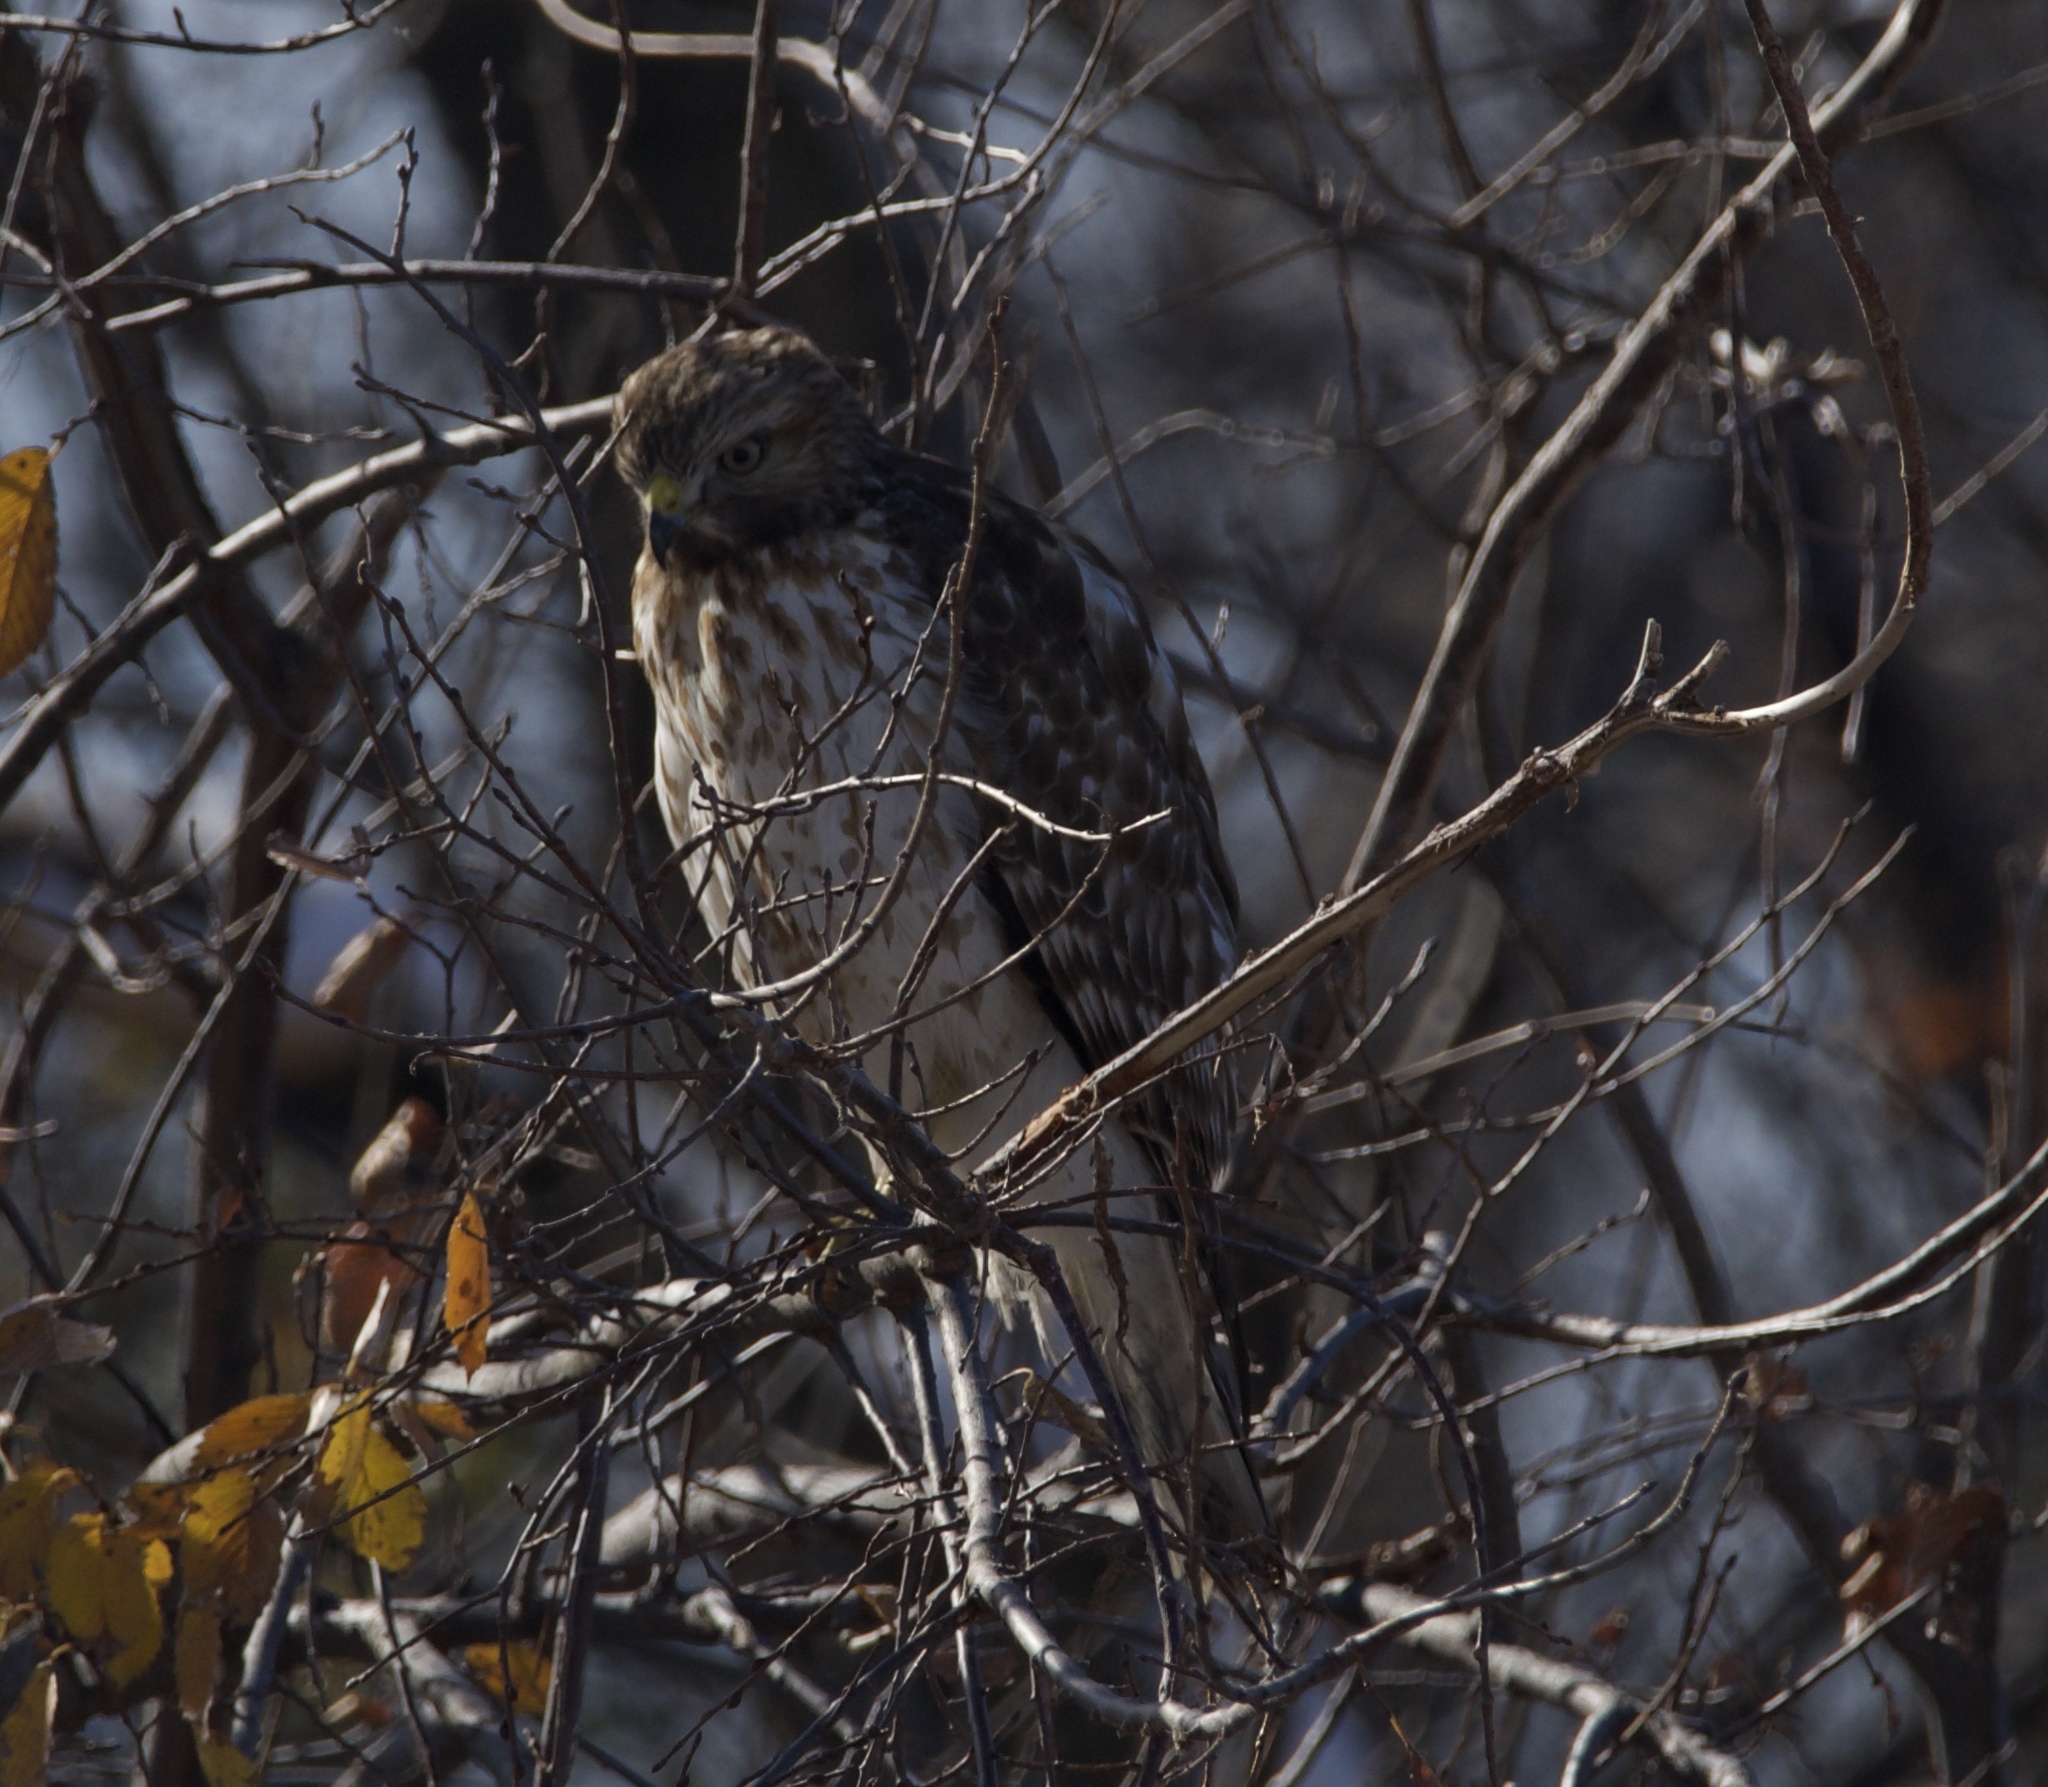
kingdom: Animalia
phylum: Chordata
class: Aves
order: Accipitriformes
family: Accipitridae
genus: Buteo
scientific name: Buteo lineatus
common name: Red-shouldered hawk
